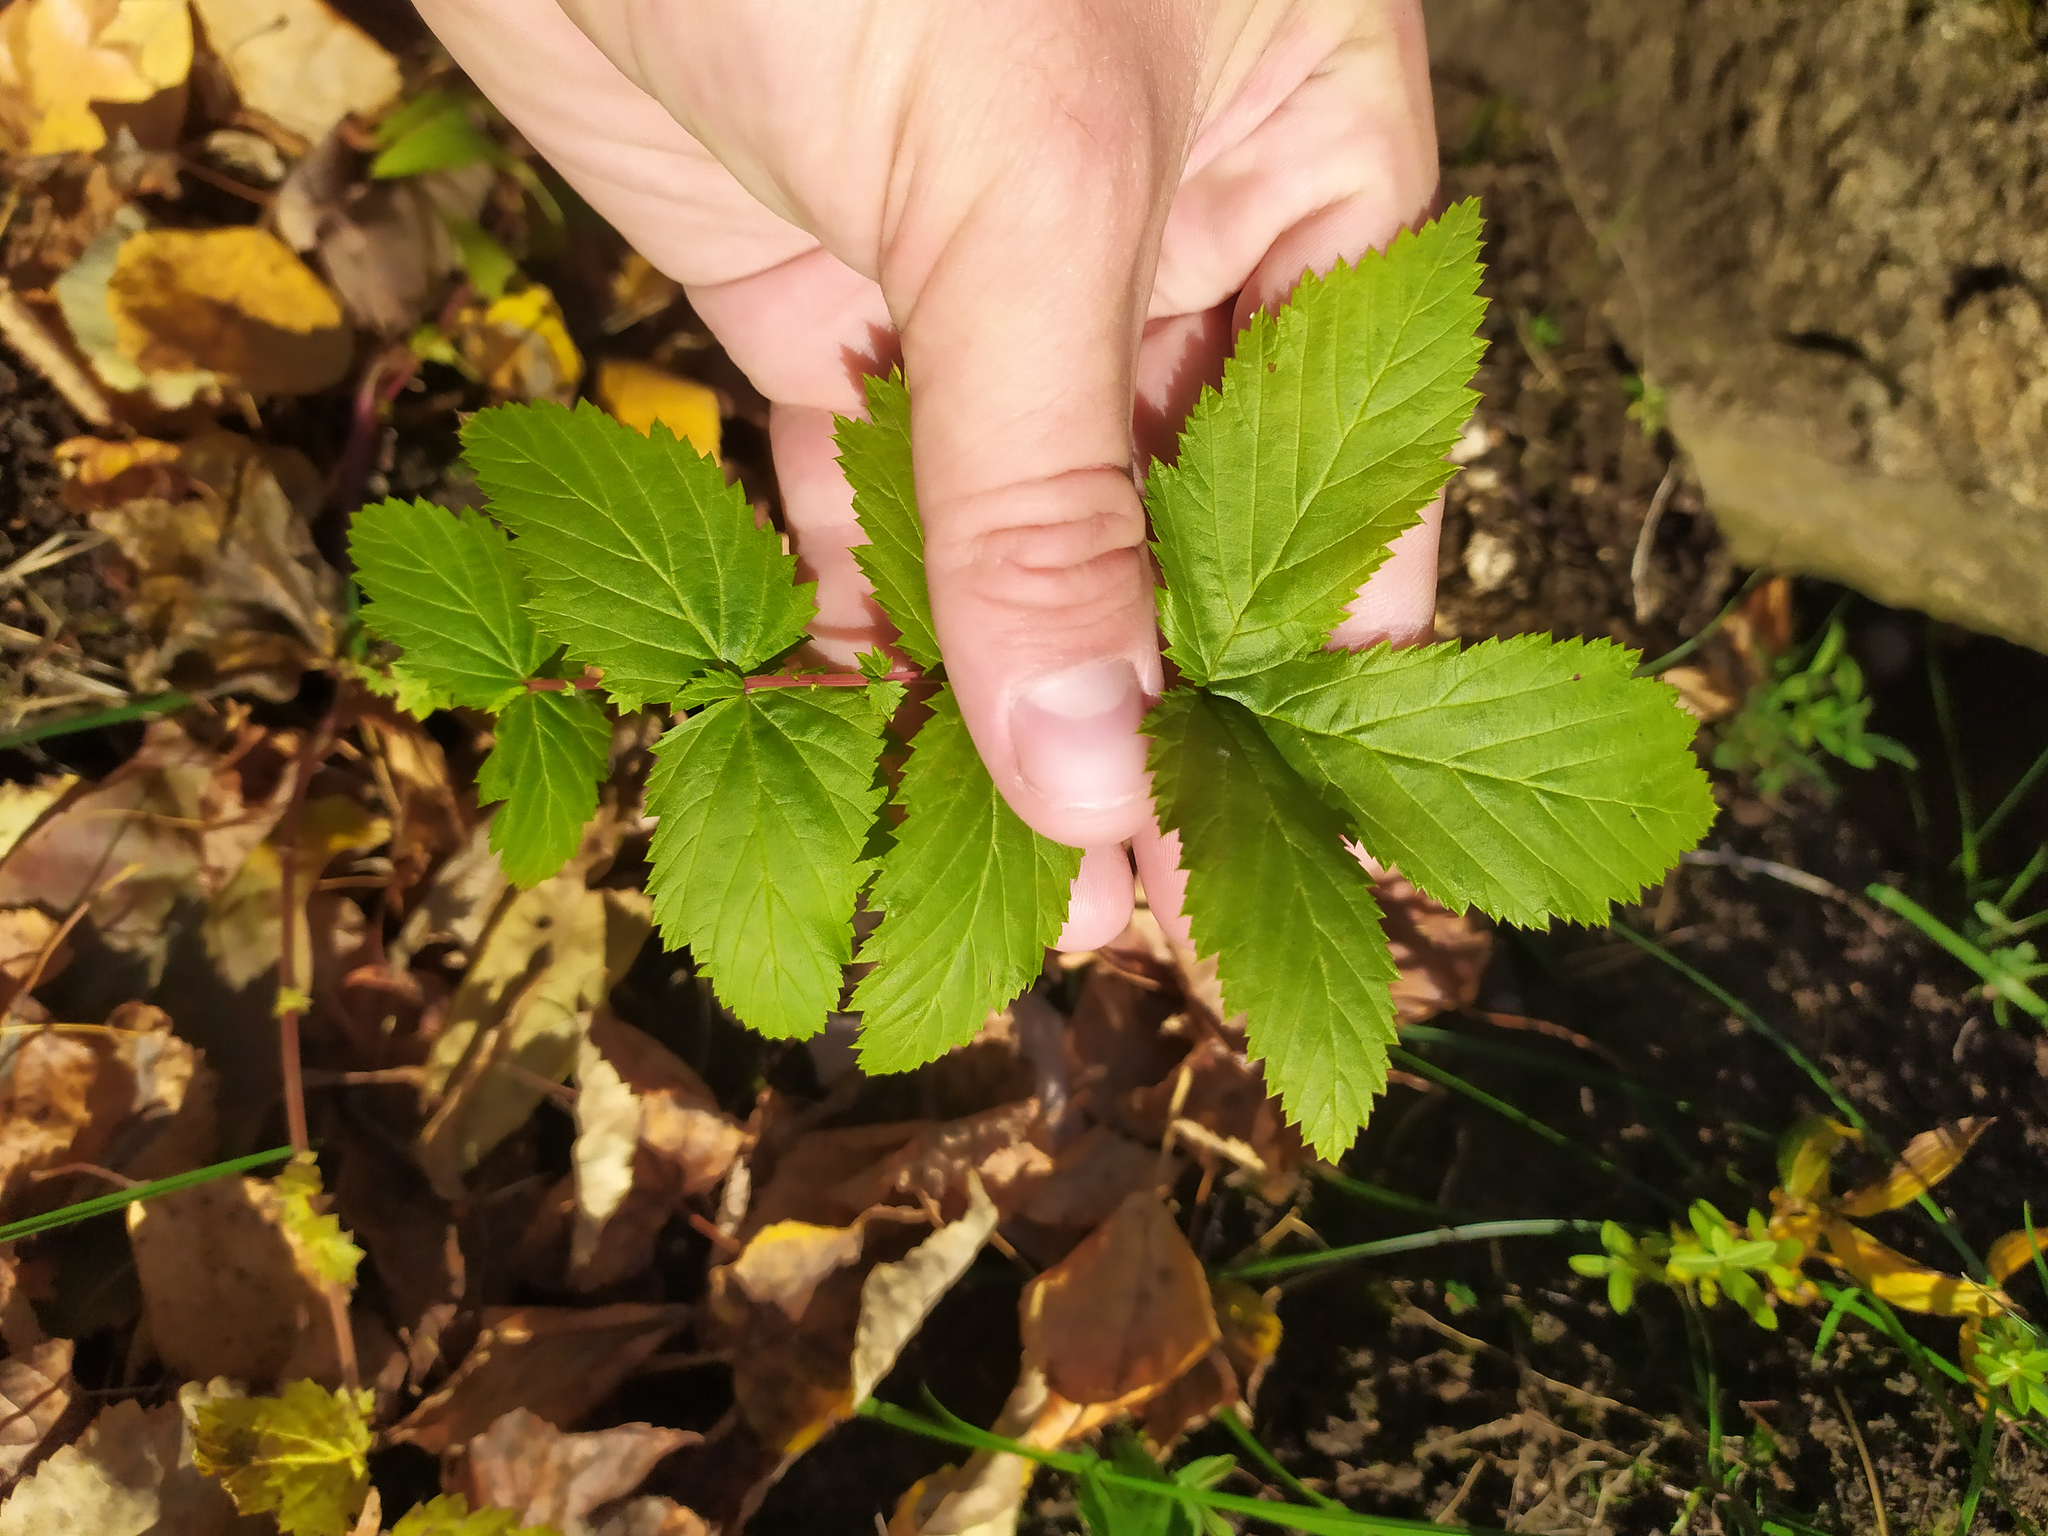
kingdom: Plantae
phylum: Tracheophyta
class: Magnoliopsida
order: Rosales
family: Rosaceae
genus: Filipendula
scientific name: Filipendula ulmaria
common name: Meadowsweet
